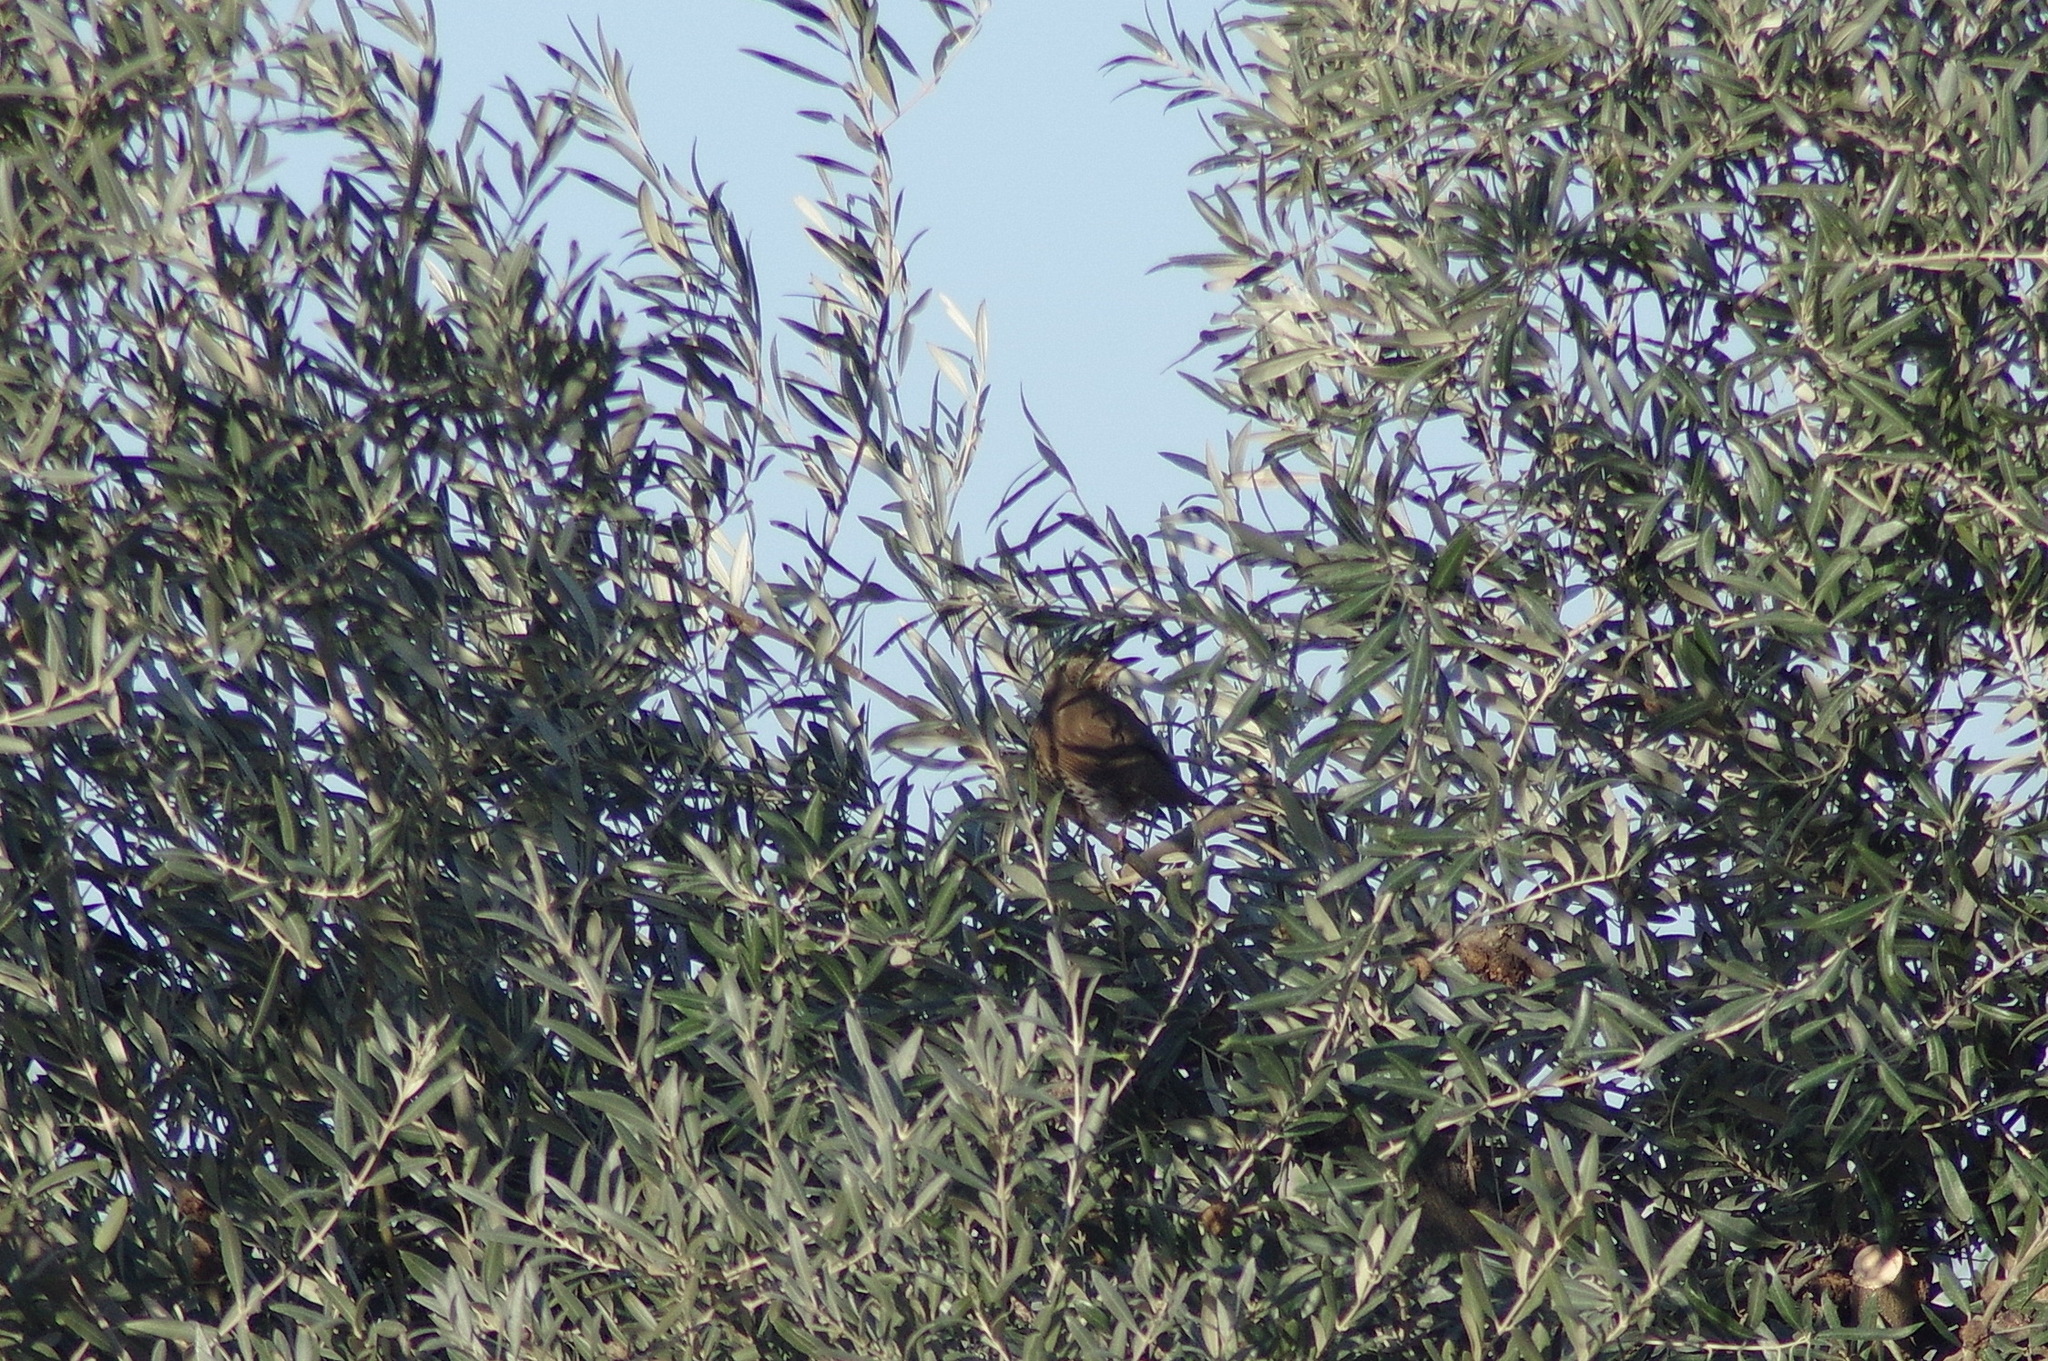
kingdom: Animalia
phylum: Chordata
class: Aves
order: Passeriformes
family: Turdidae
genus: Turdus
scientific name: Turdus philomelos
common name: Song thrush
